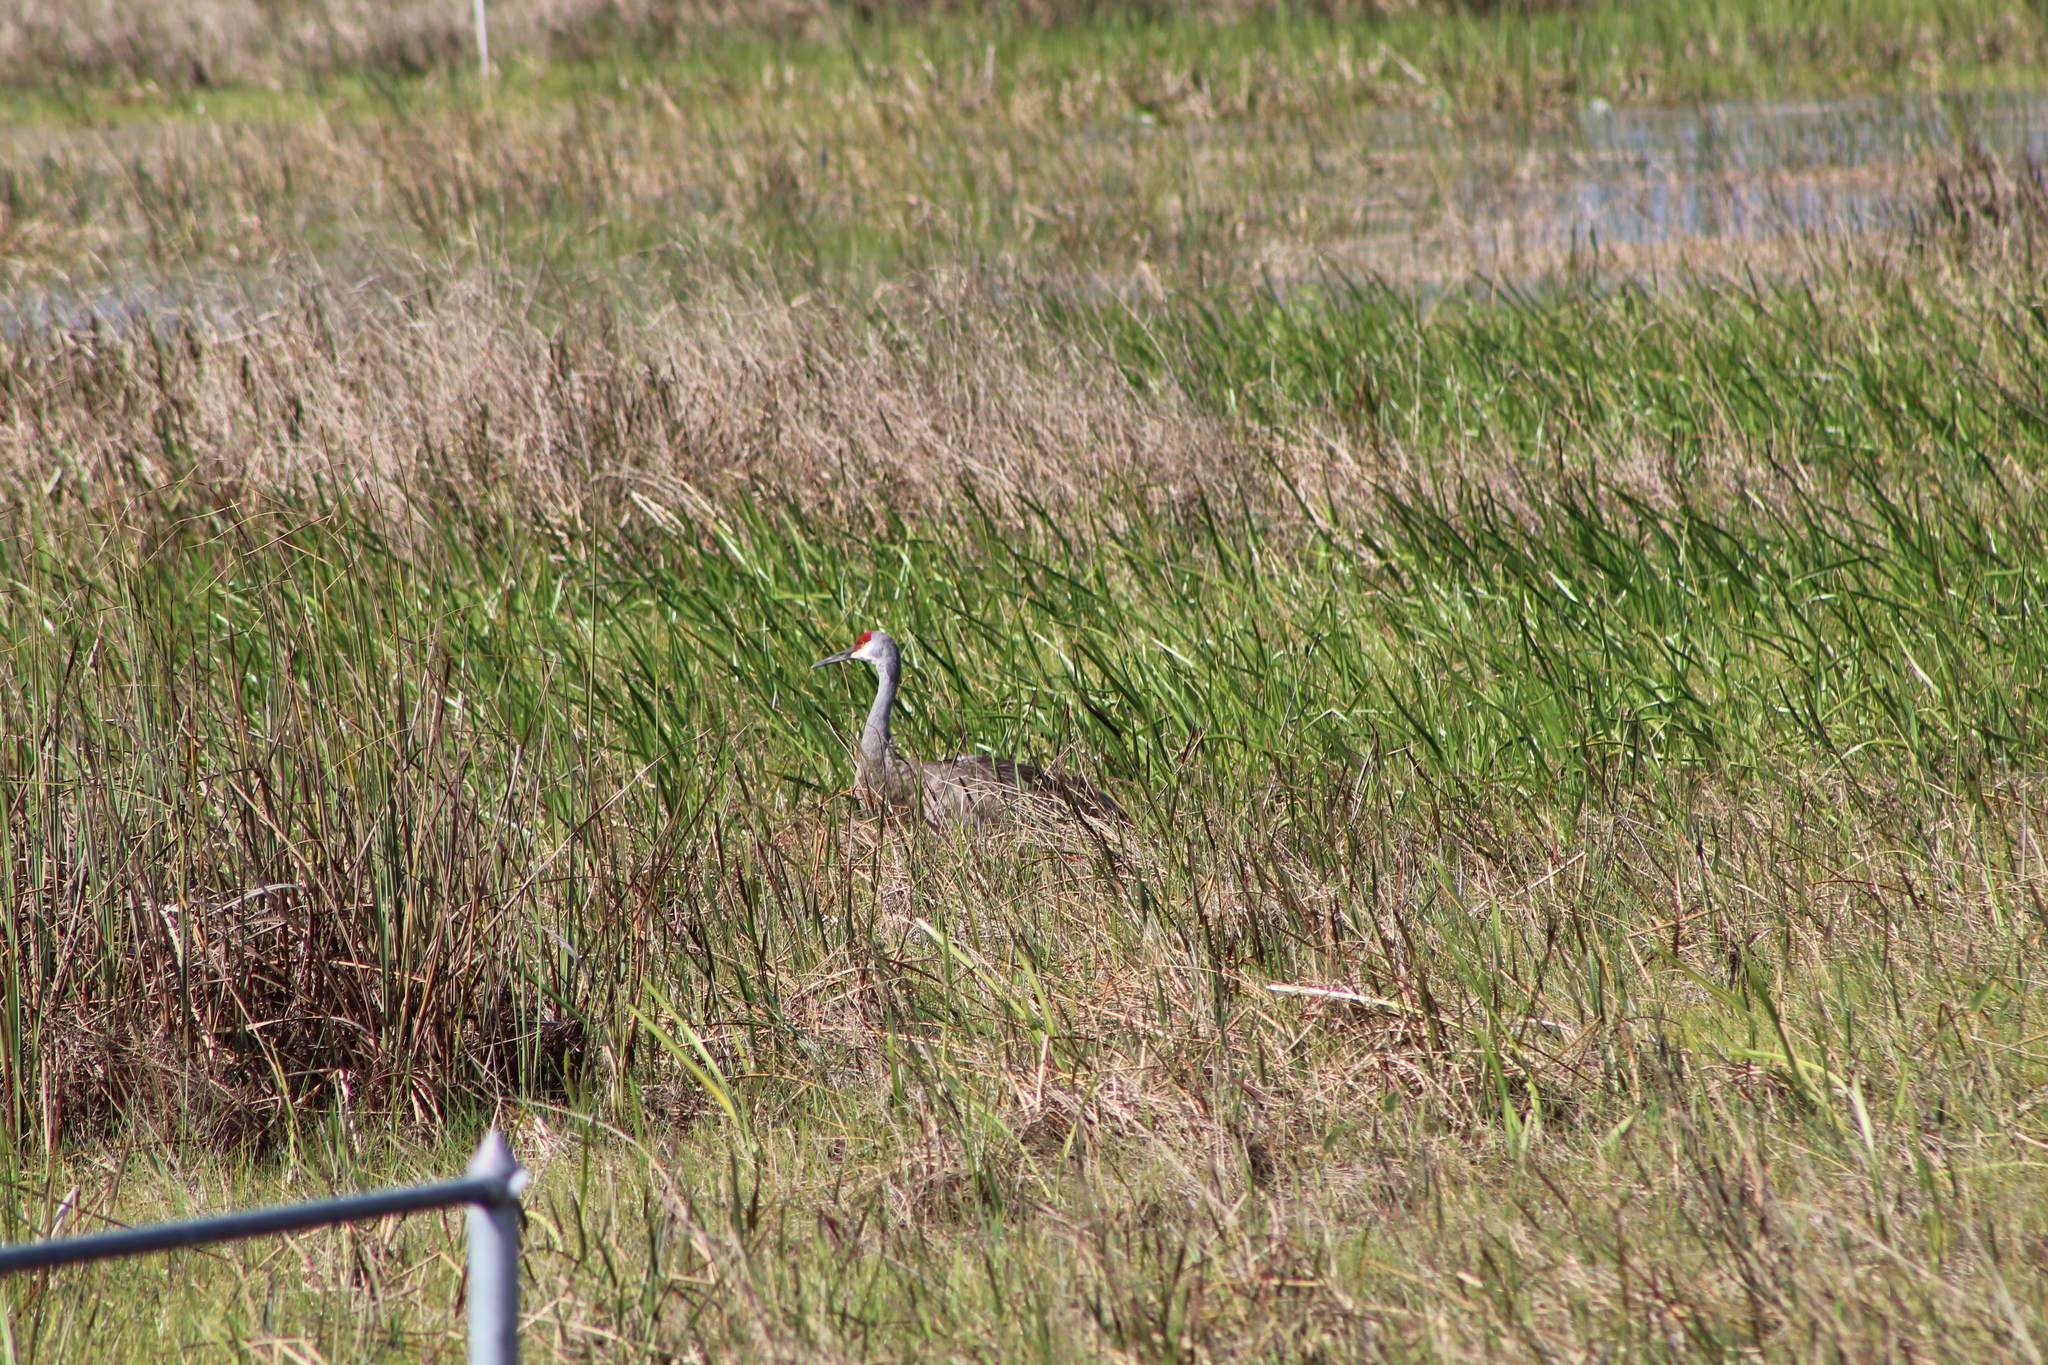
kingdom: Animalia
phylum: Chordata
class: Aves
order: Gruiformes
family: Gruidae
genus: Grus
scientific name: Grus canadensis
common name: Sandhill crane
